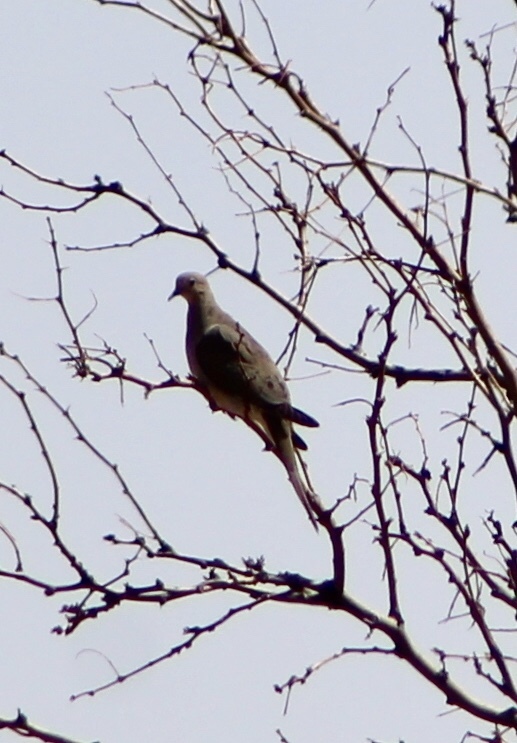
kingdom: Animalia
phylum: Chordata
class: Aves
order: Columbiformes
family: Columbidae
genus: Zenaida
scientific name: Zenaida macroura
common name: Mourning dove
